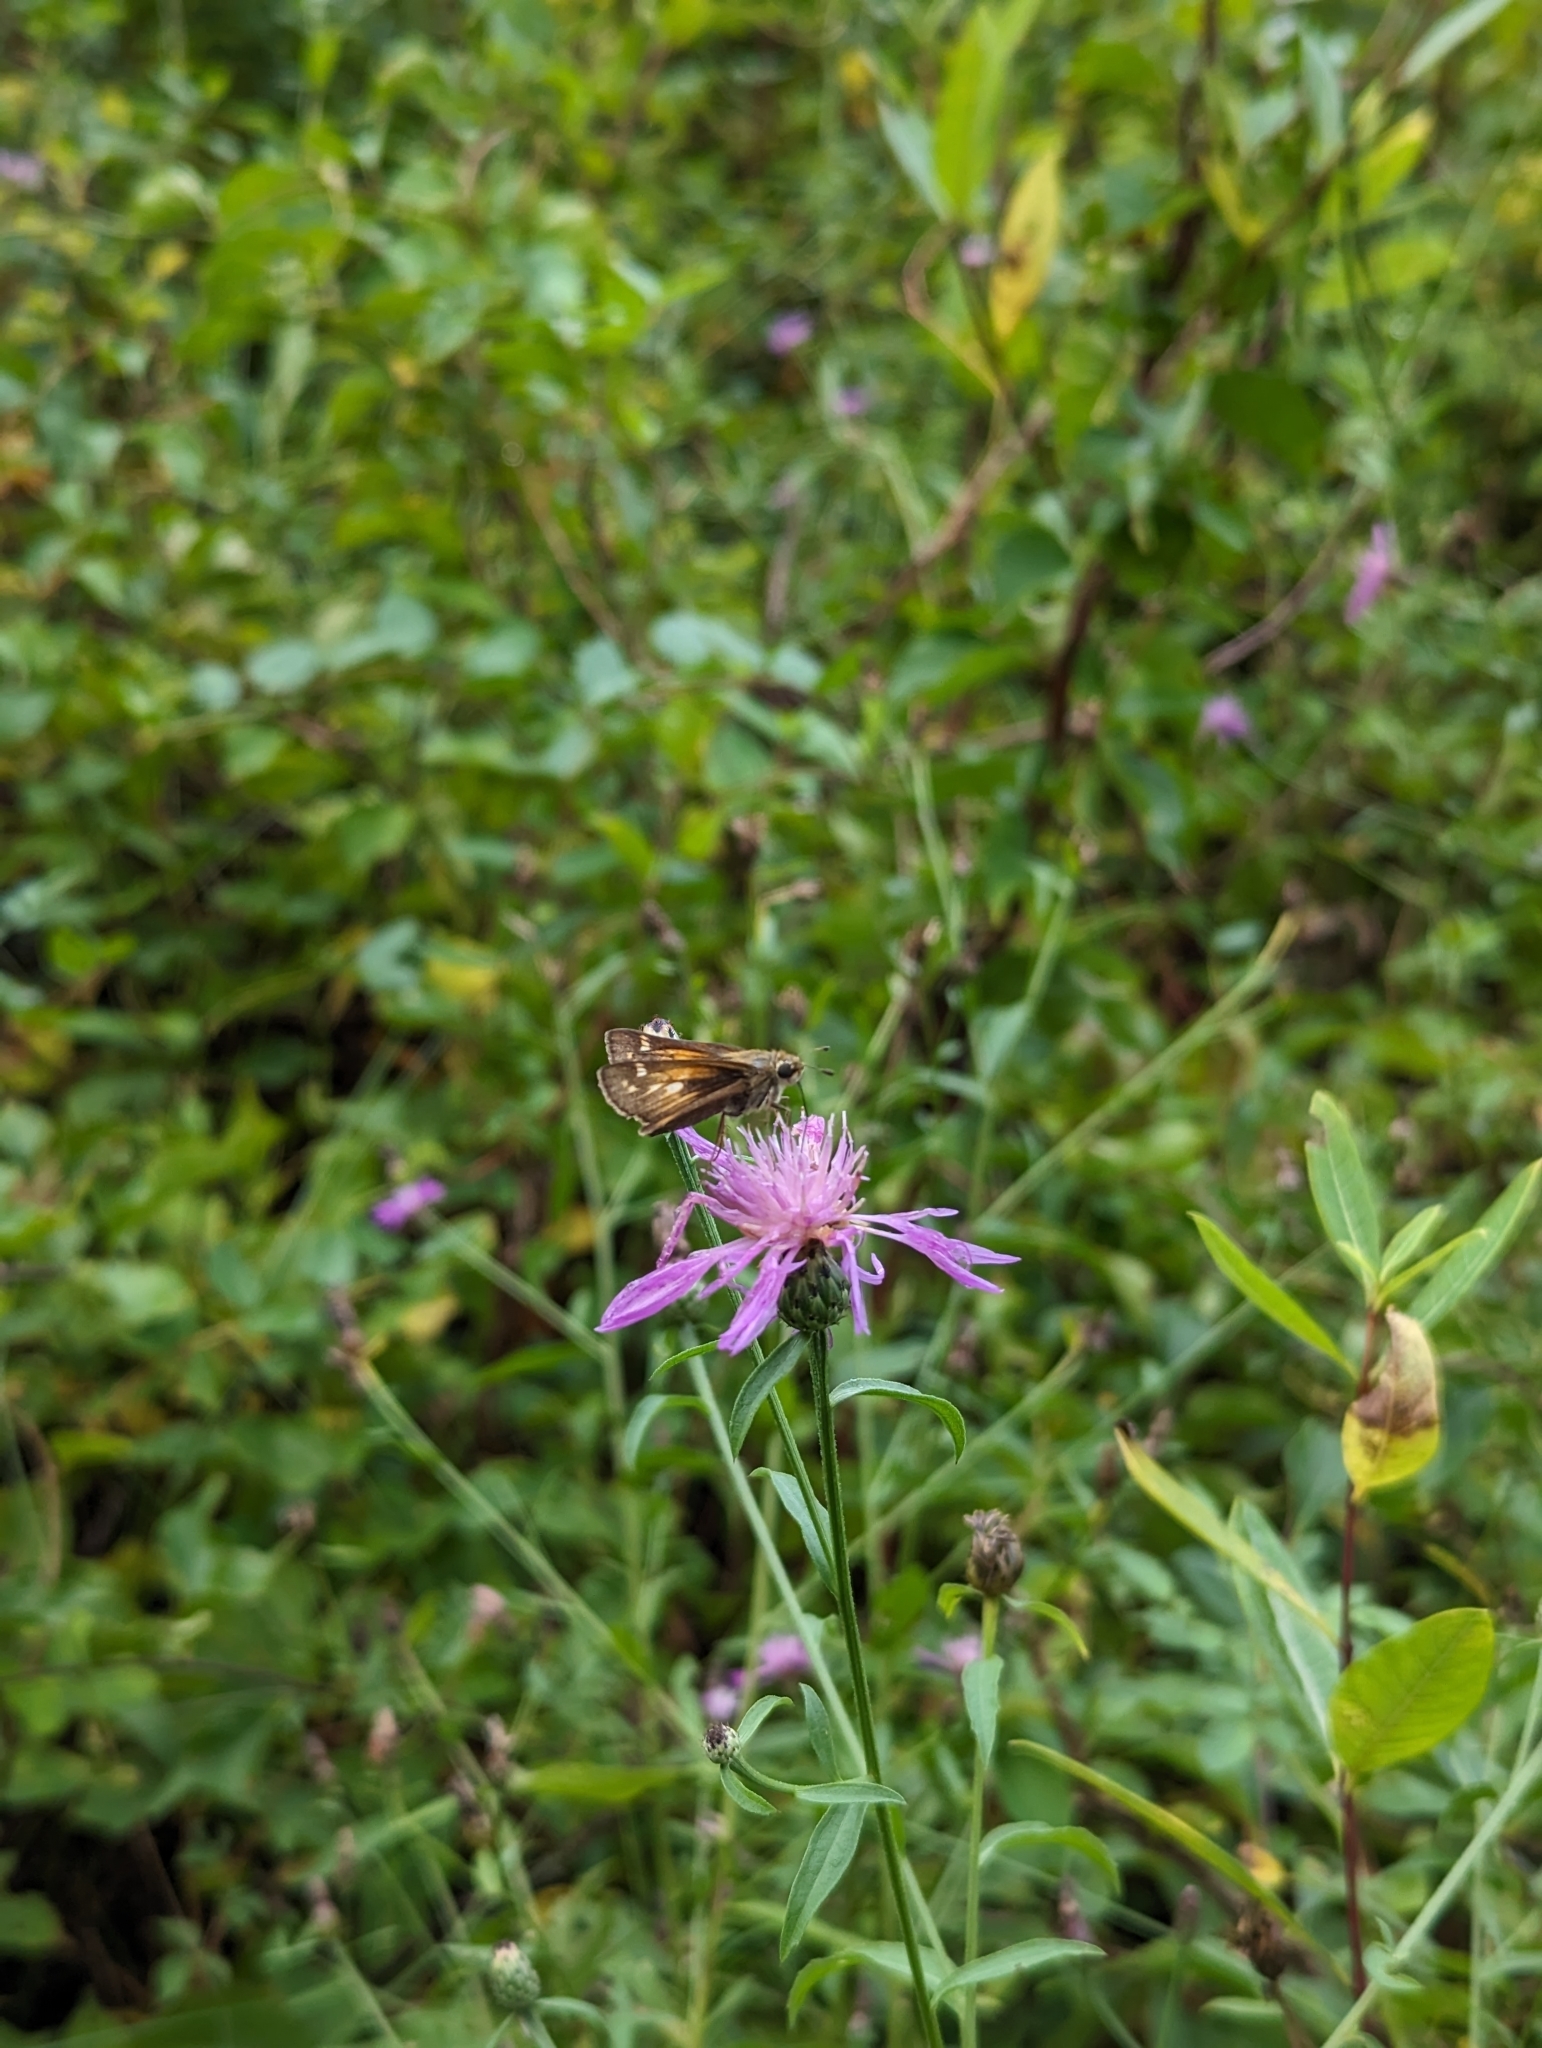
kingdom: Animalia
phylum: Arthropoda
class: Insecta
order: Lepidoptera
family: Hesperiidae
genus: Atalopedes
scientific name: Atalopedes
